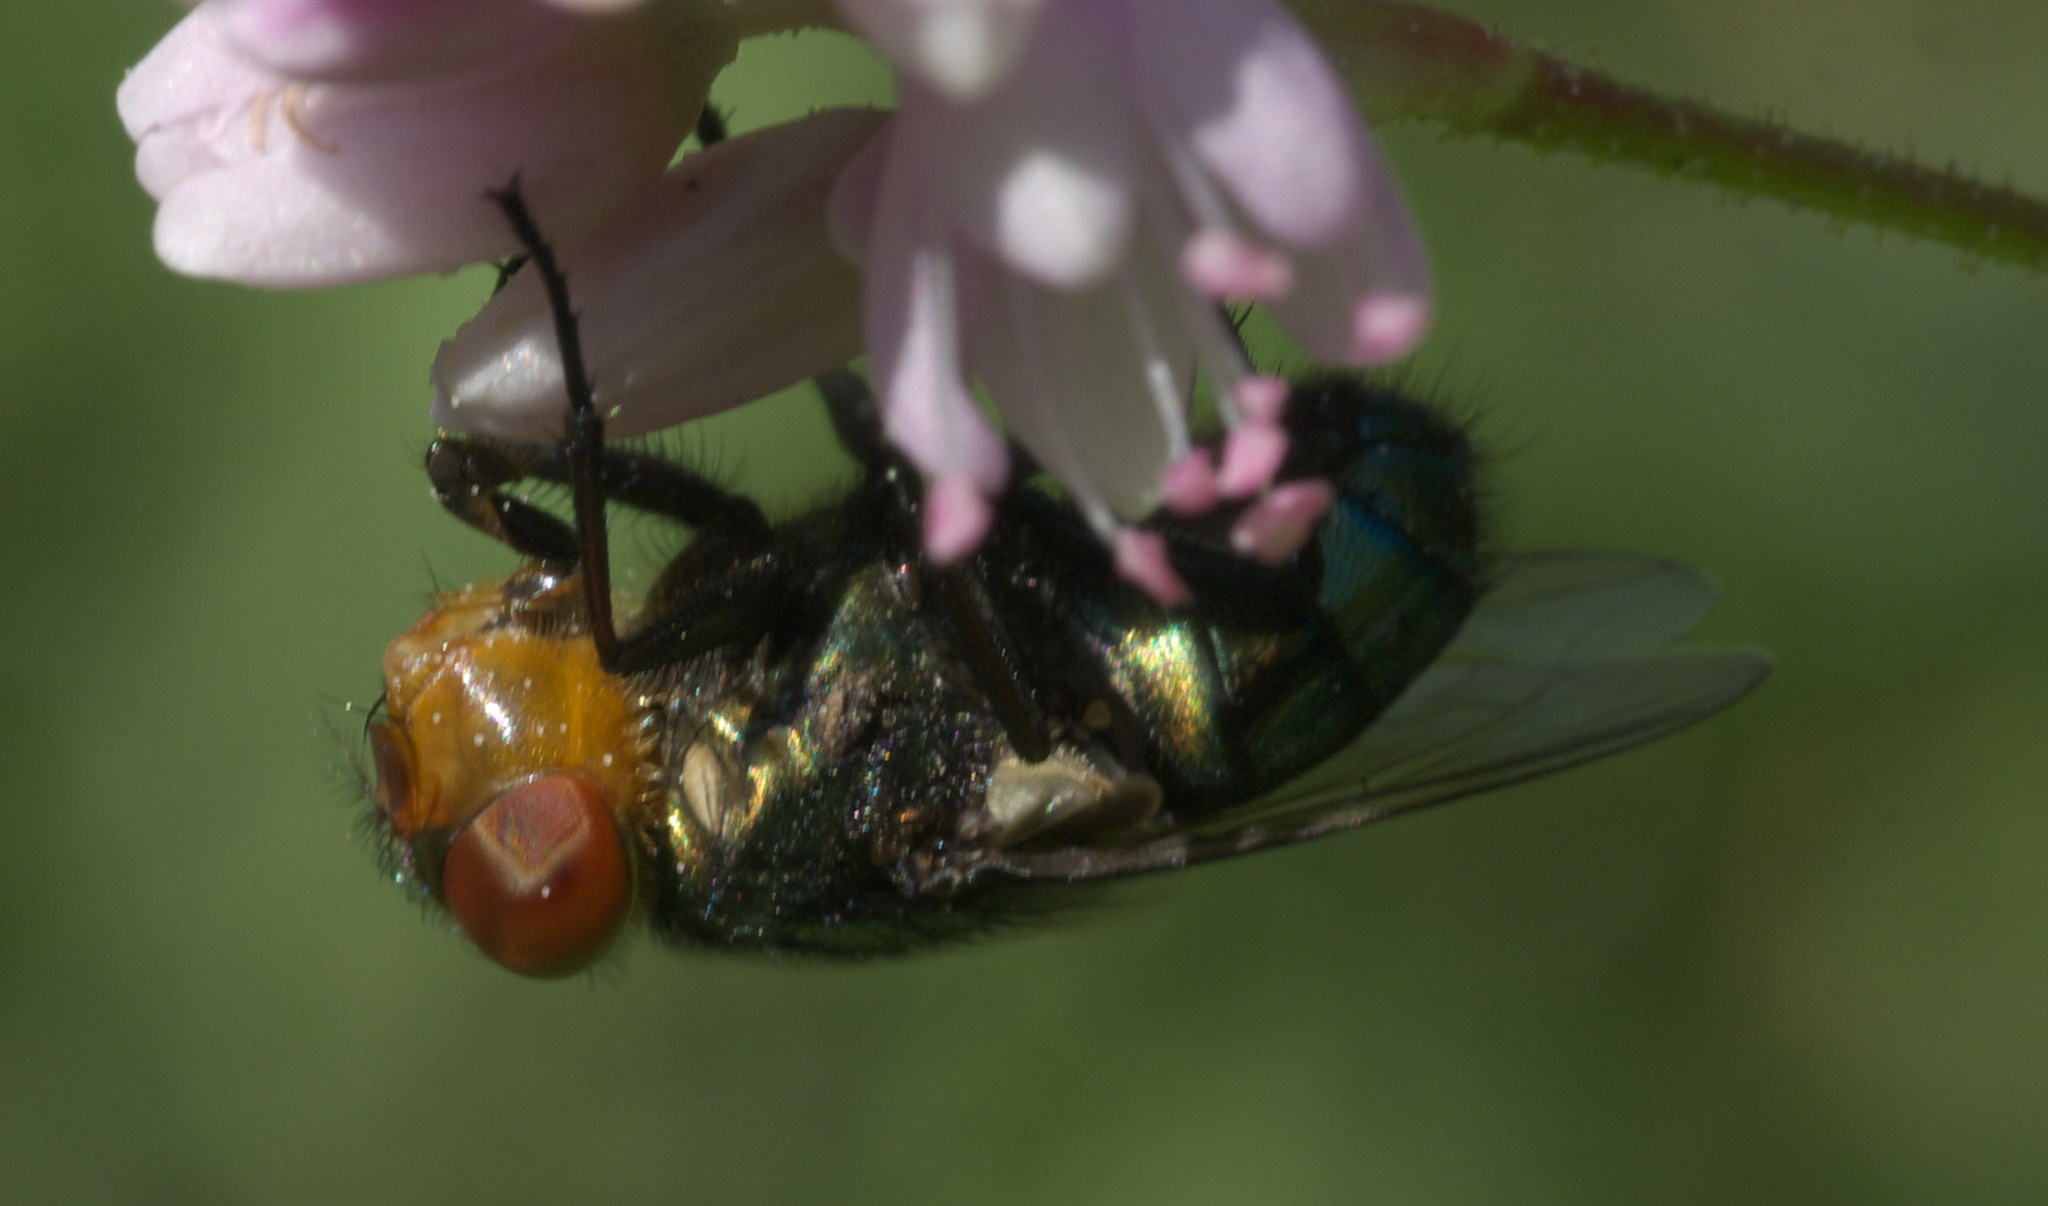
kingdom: Animalia
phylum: Arthropoda
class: Insecta
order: Diptera
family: Calliphoridae
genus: Cochliomyia
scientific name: Cochliomyia macellaria
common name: Secondary screwworm
